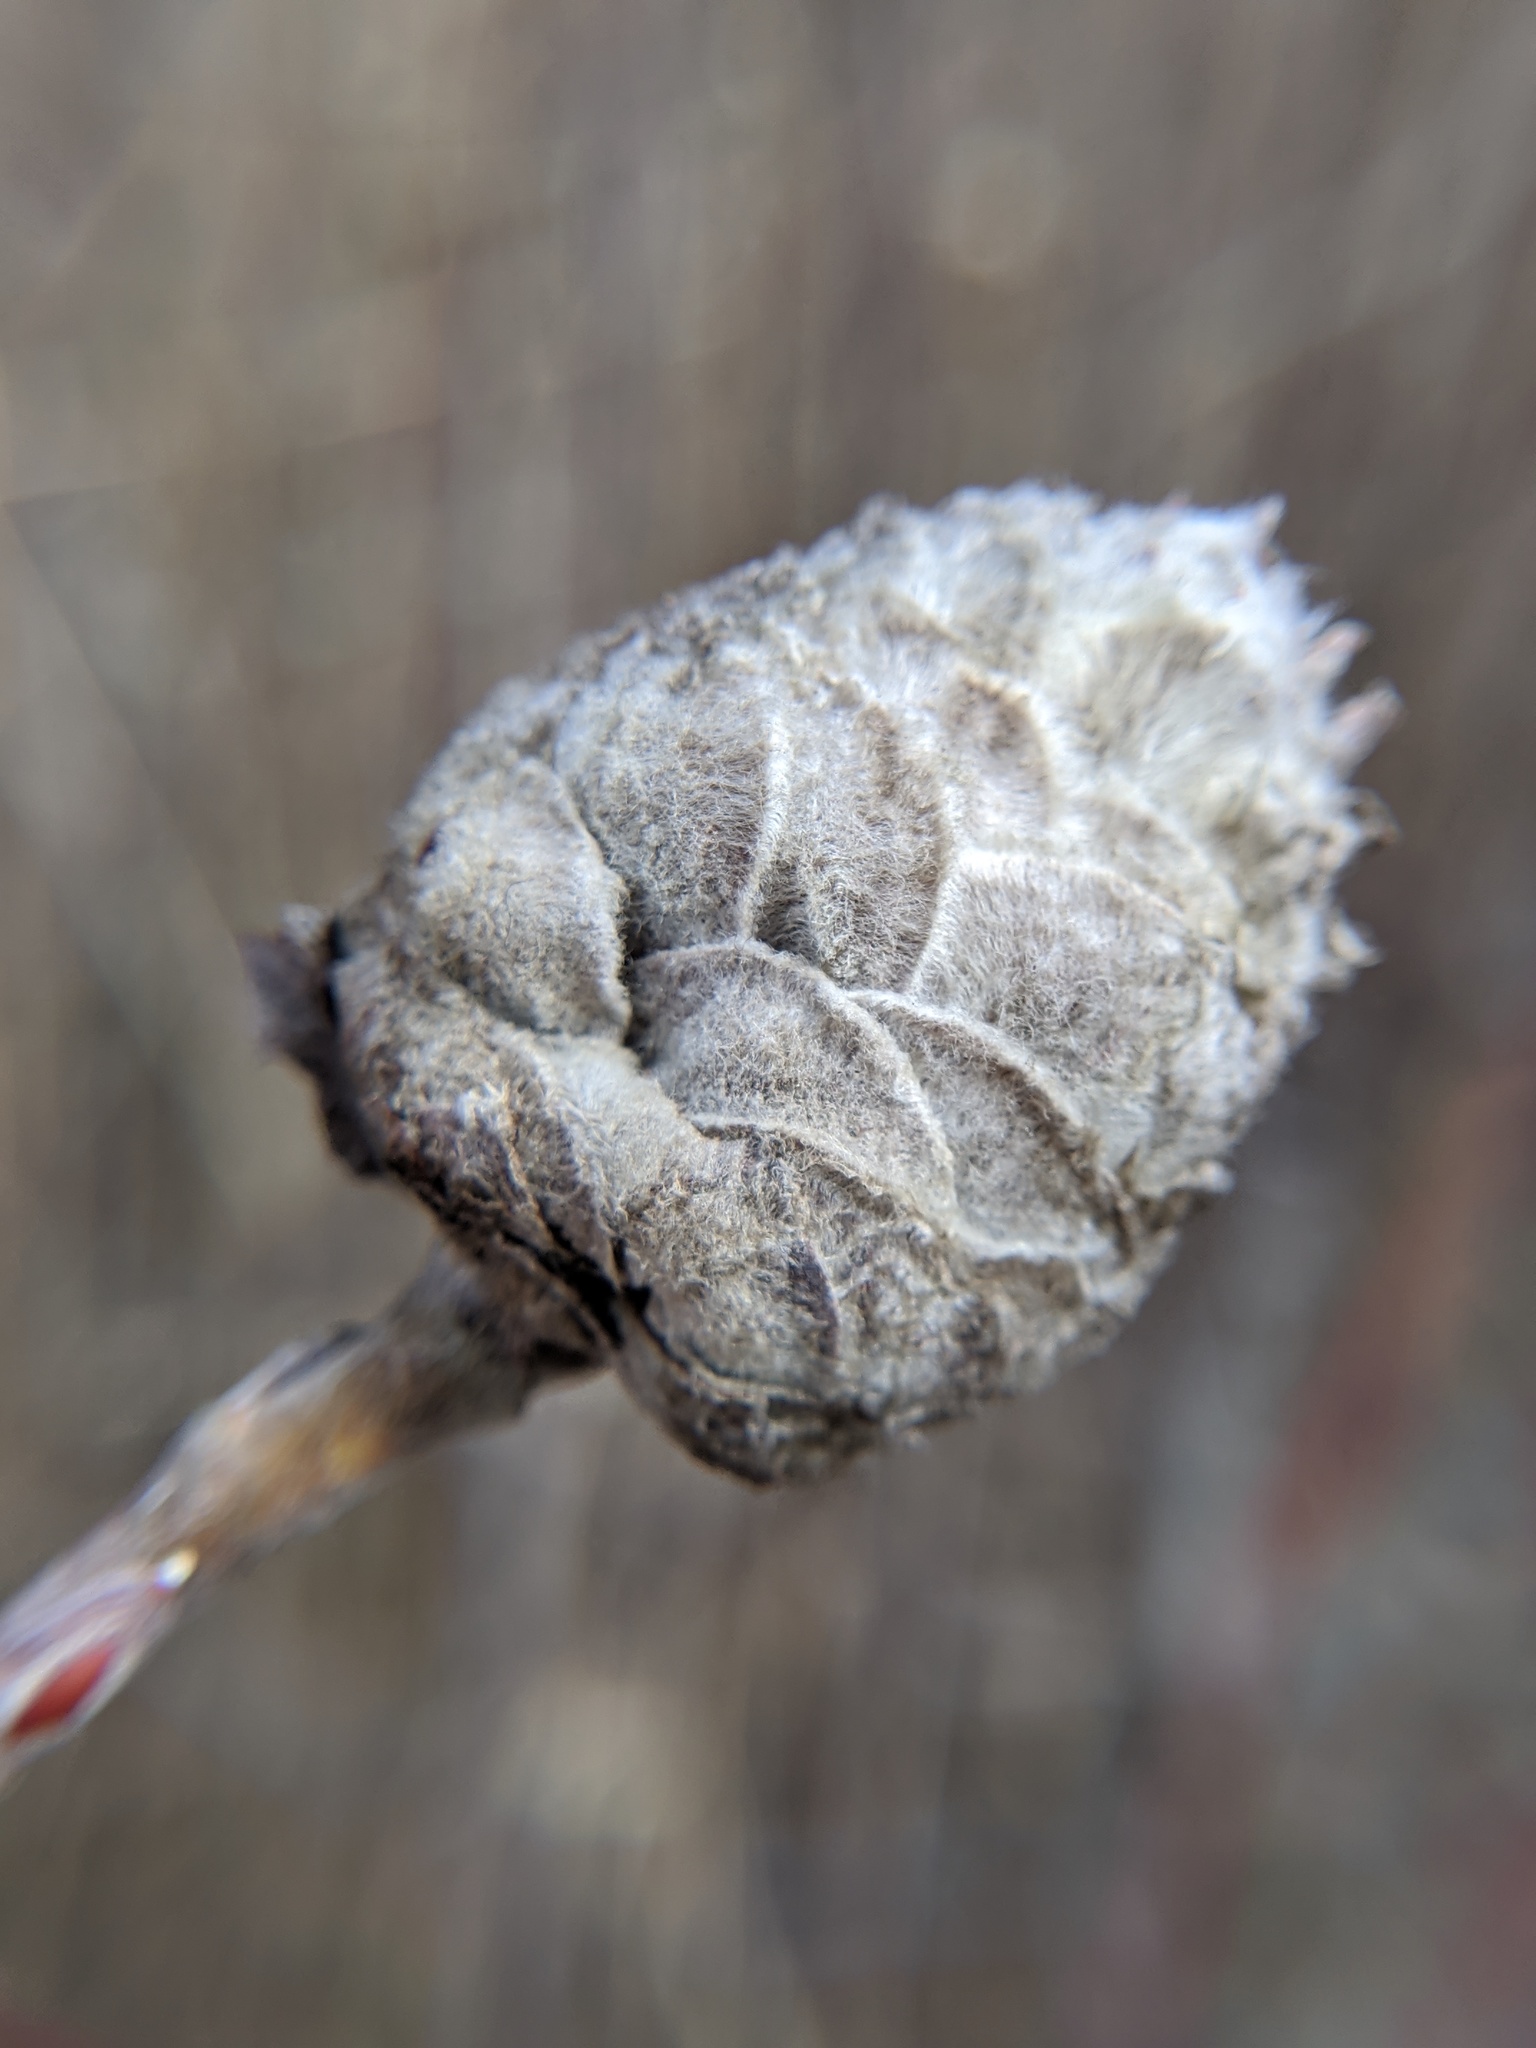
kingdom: Animalia
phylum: Arthropoda
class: Insecta
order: Diptera
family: Cecidomyiidae
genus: Rabdophaga
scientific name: Rabdophaga strobiloides
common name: Willow pinecone gall midge
